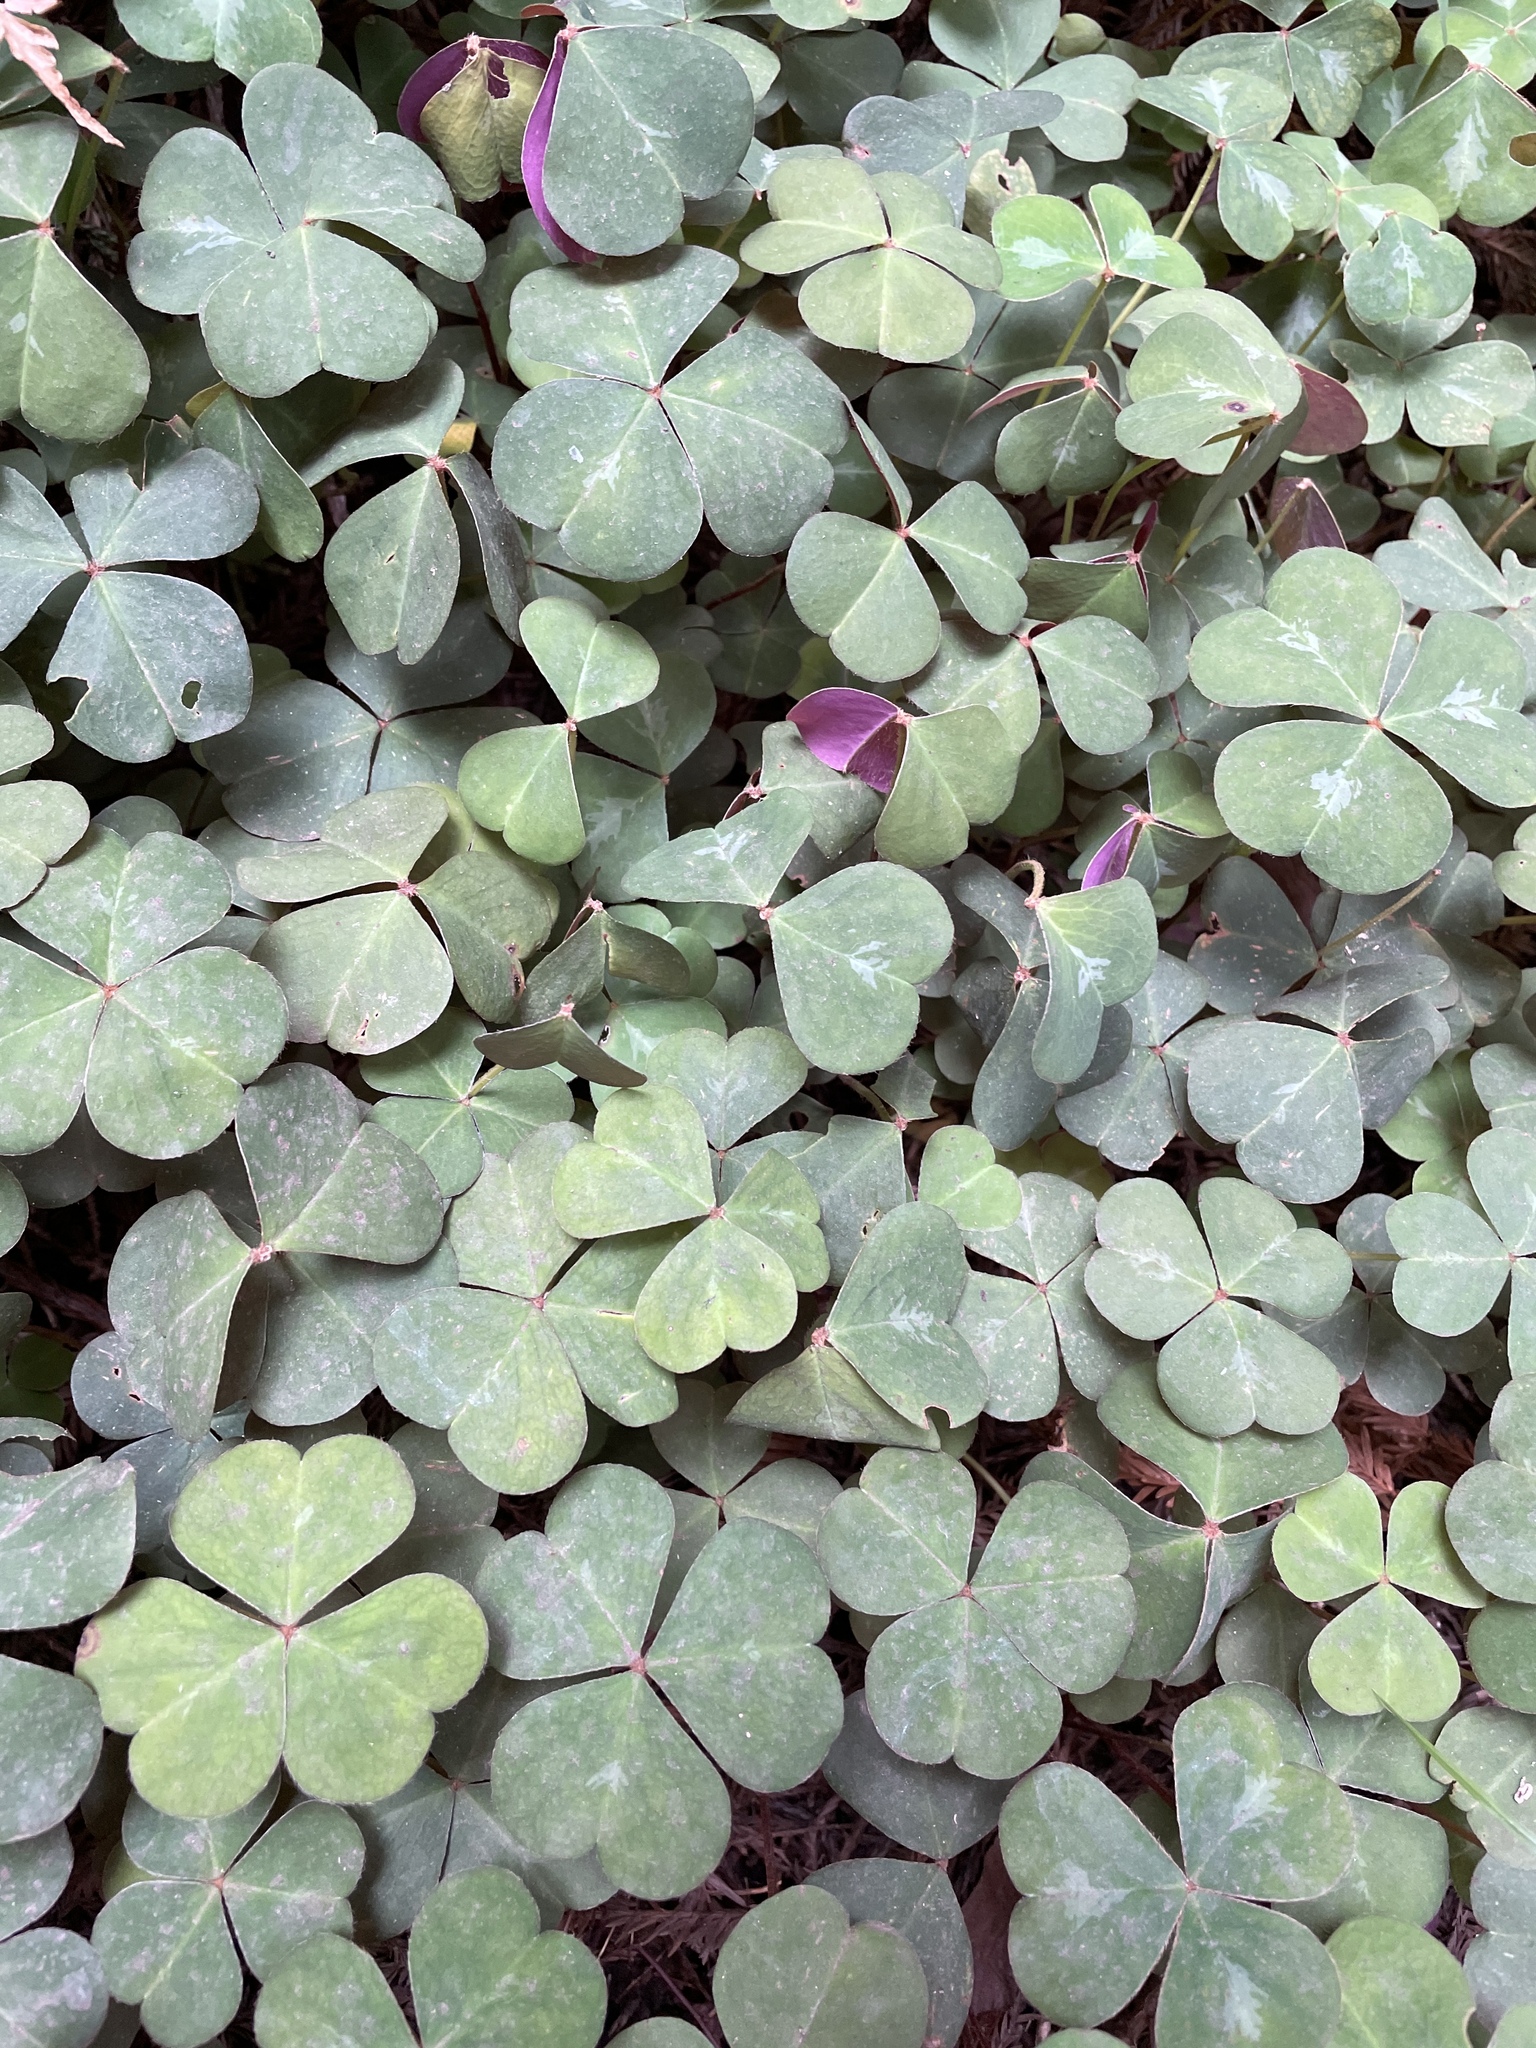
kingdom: Plantae
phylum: Tracheophyta
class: Magnoliopsida
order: Oxalidales
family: Oxalidaceae
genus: Oxalis
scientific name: Oxalis oregana
